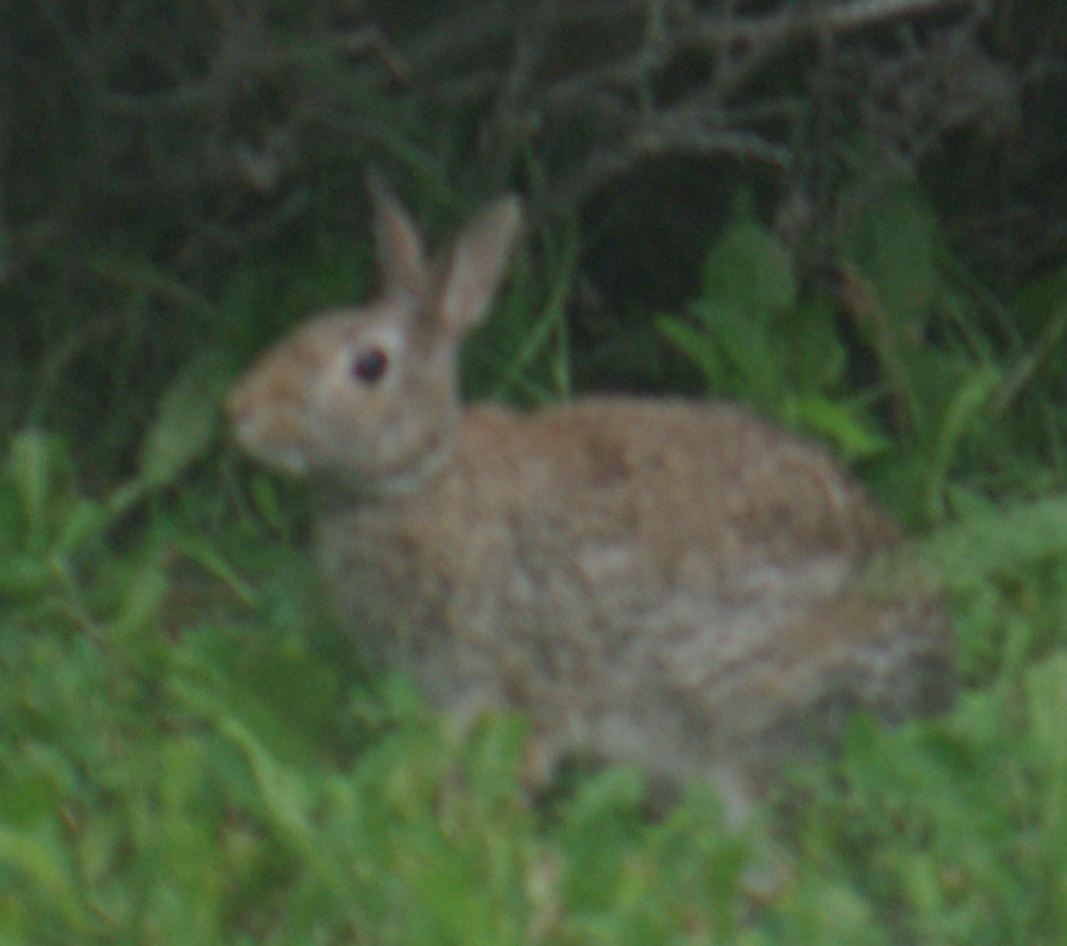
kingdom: Animalia
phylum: Chordata
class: Mammalia
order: Lagomorpha
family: Leporidae
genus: Sylvilagus
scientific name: Sylvilagus floridanus
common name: Eastern cottontail
